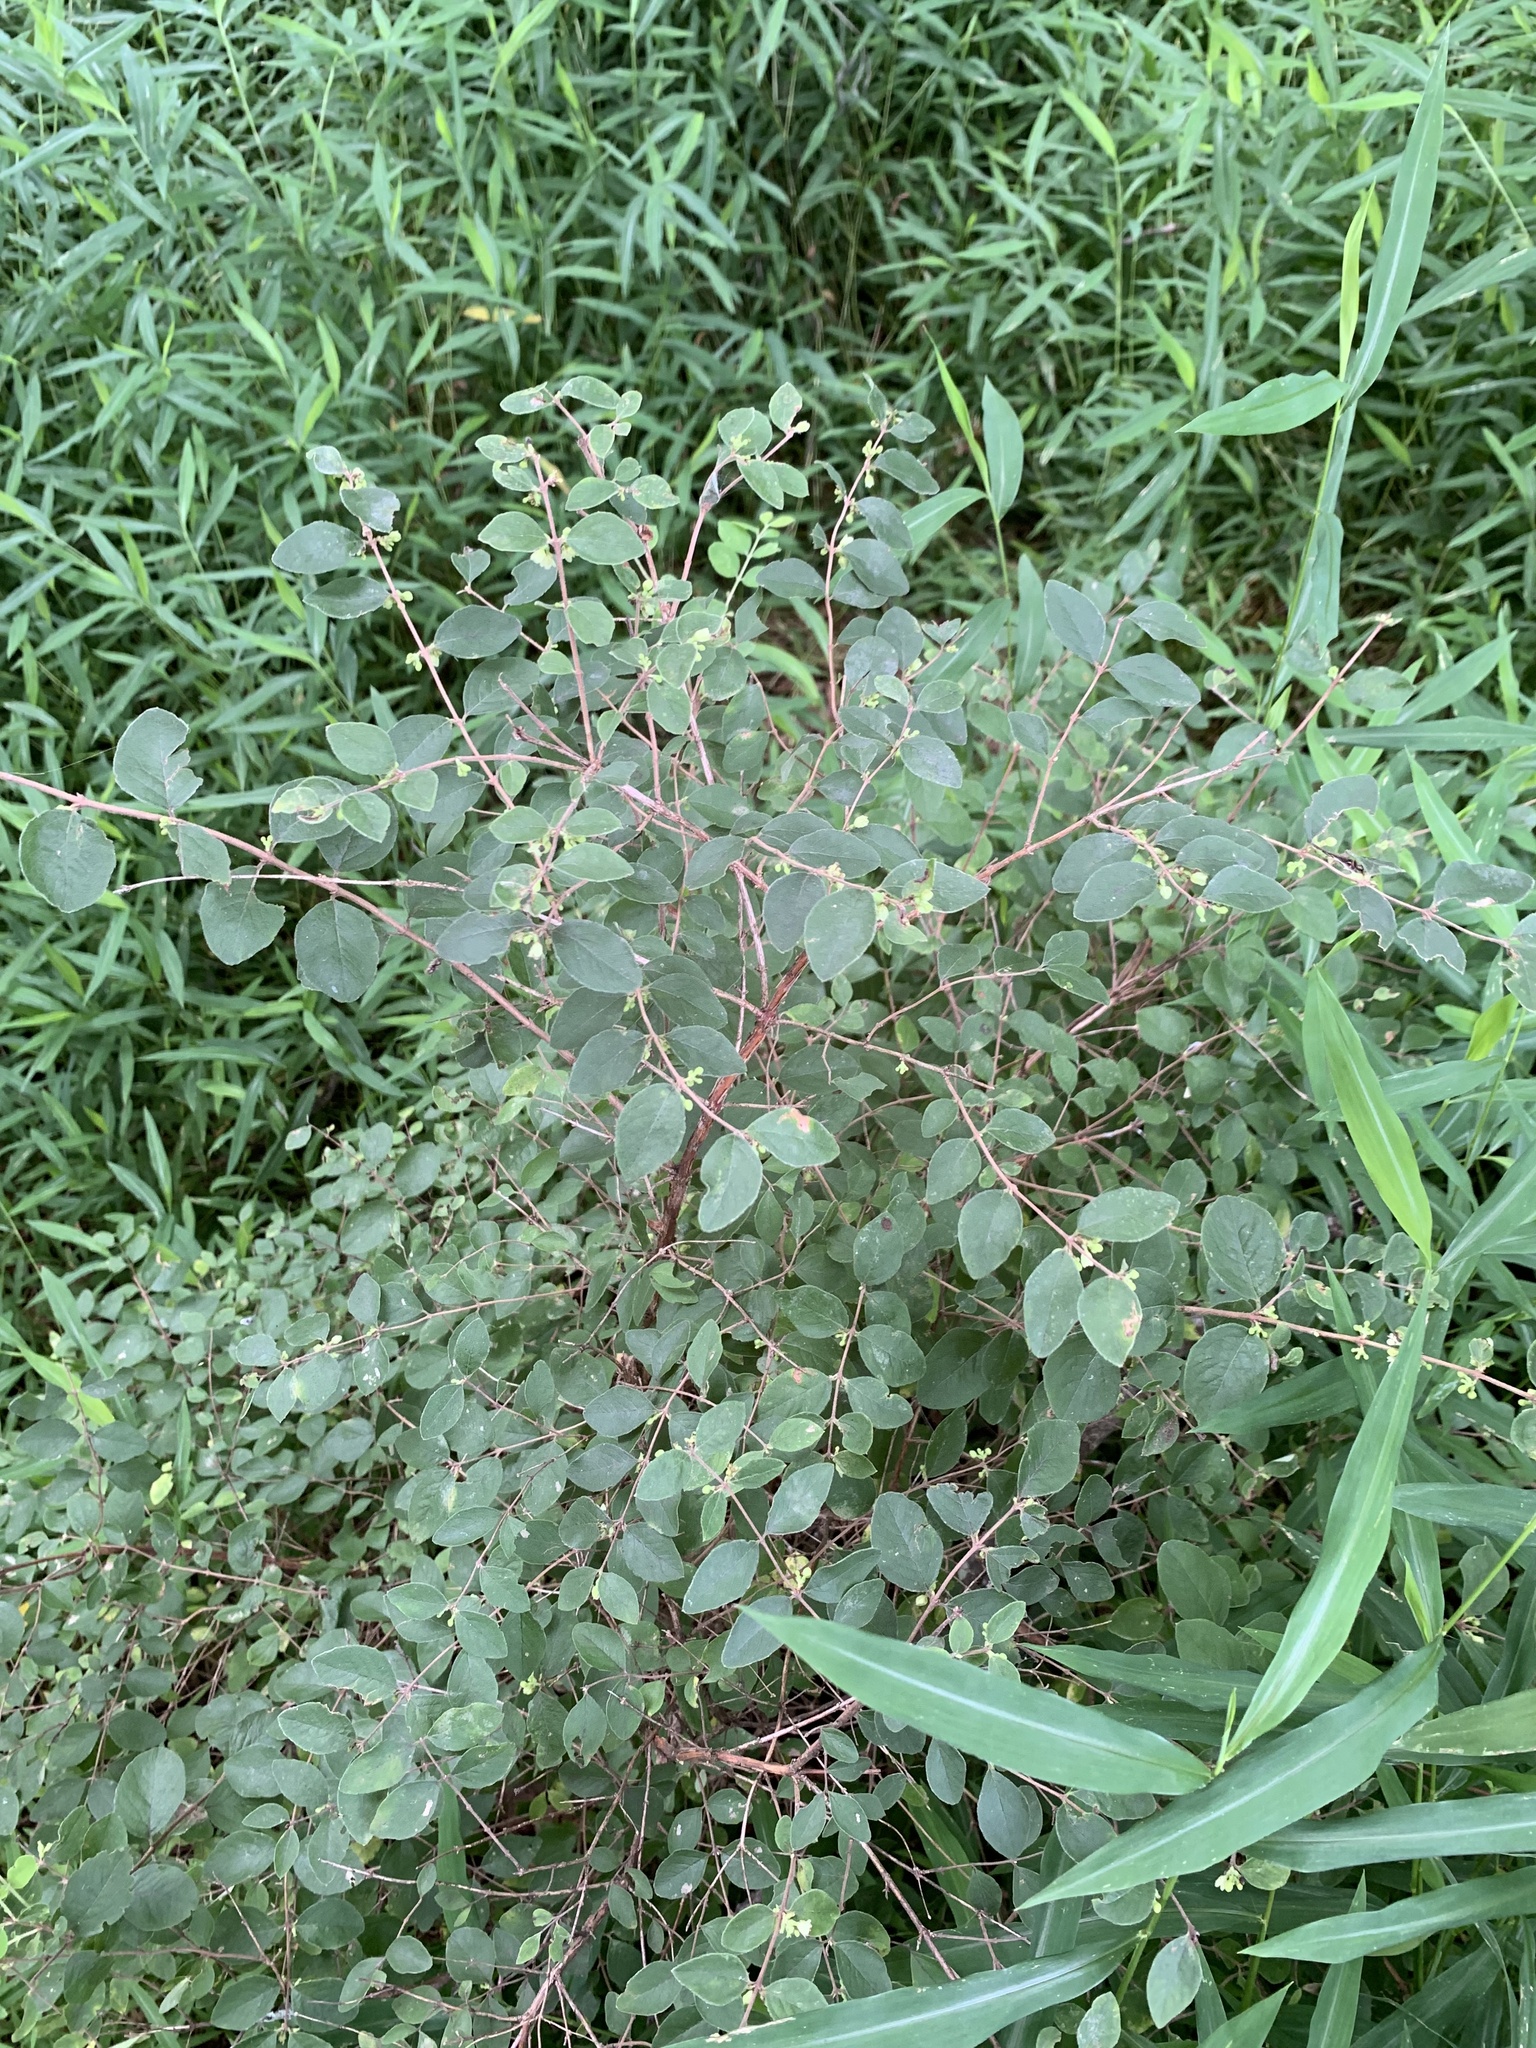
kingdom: Plantae
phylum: Tracheophyta
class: Magnoliopsida
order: Dipsacales
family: Caprifoliaceae
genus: Symphoricarpos
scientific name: Symphoricarpos orbiculatus
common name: Coralberry
